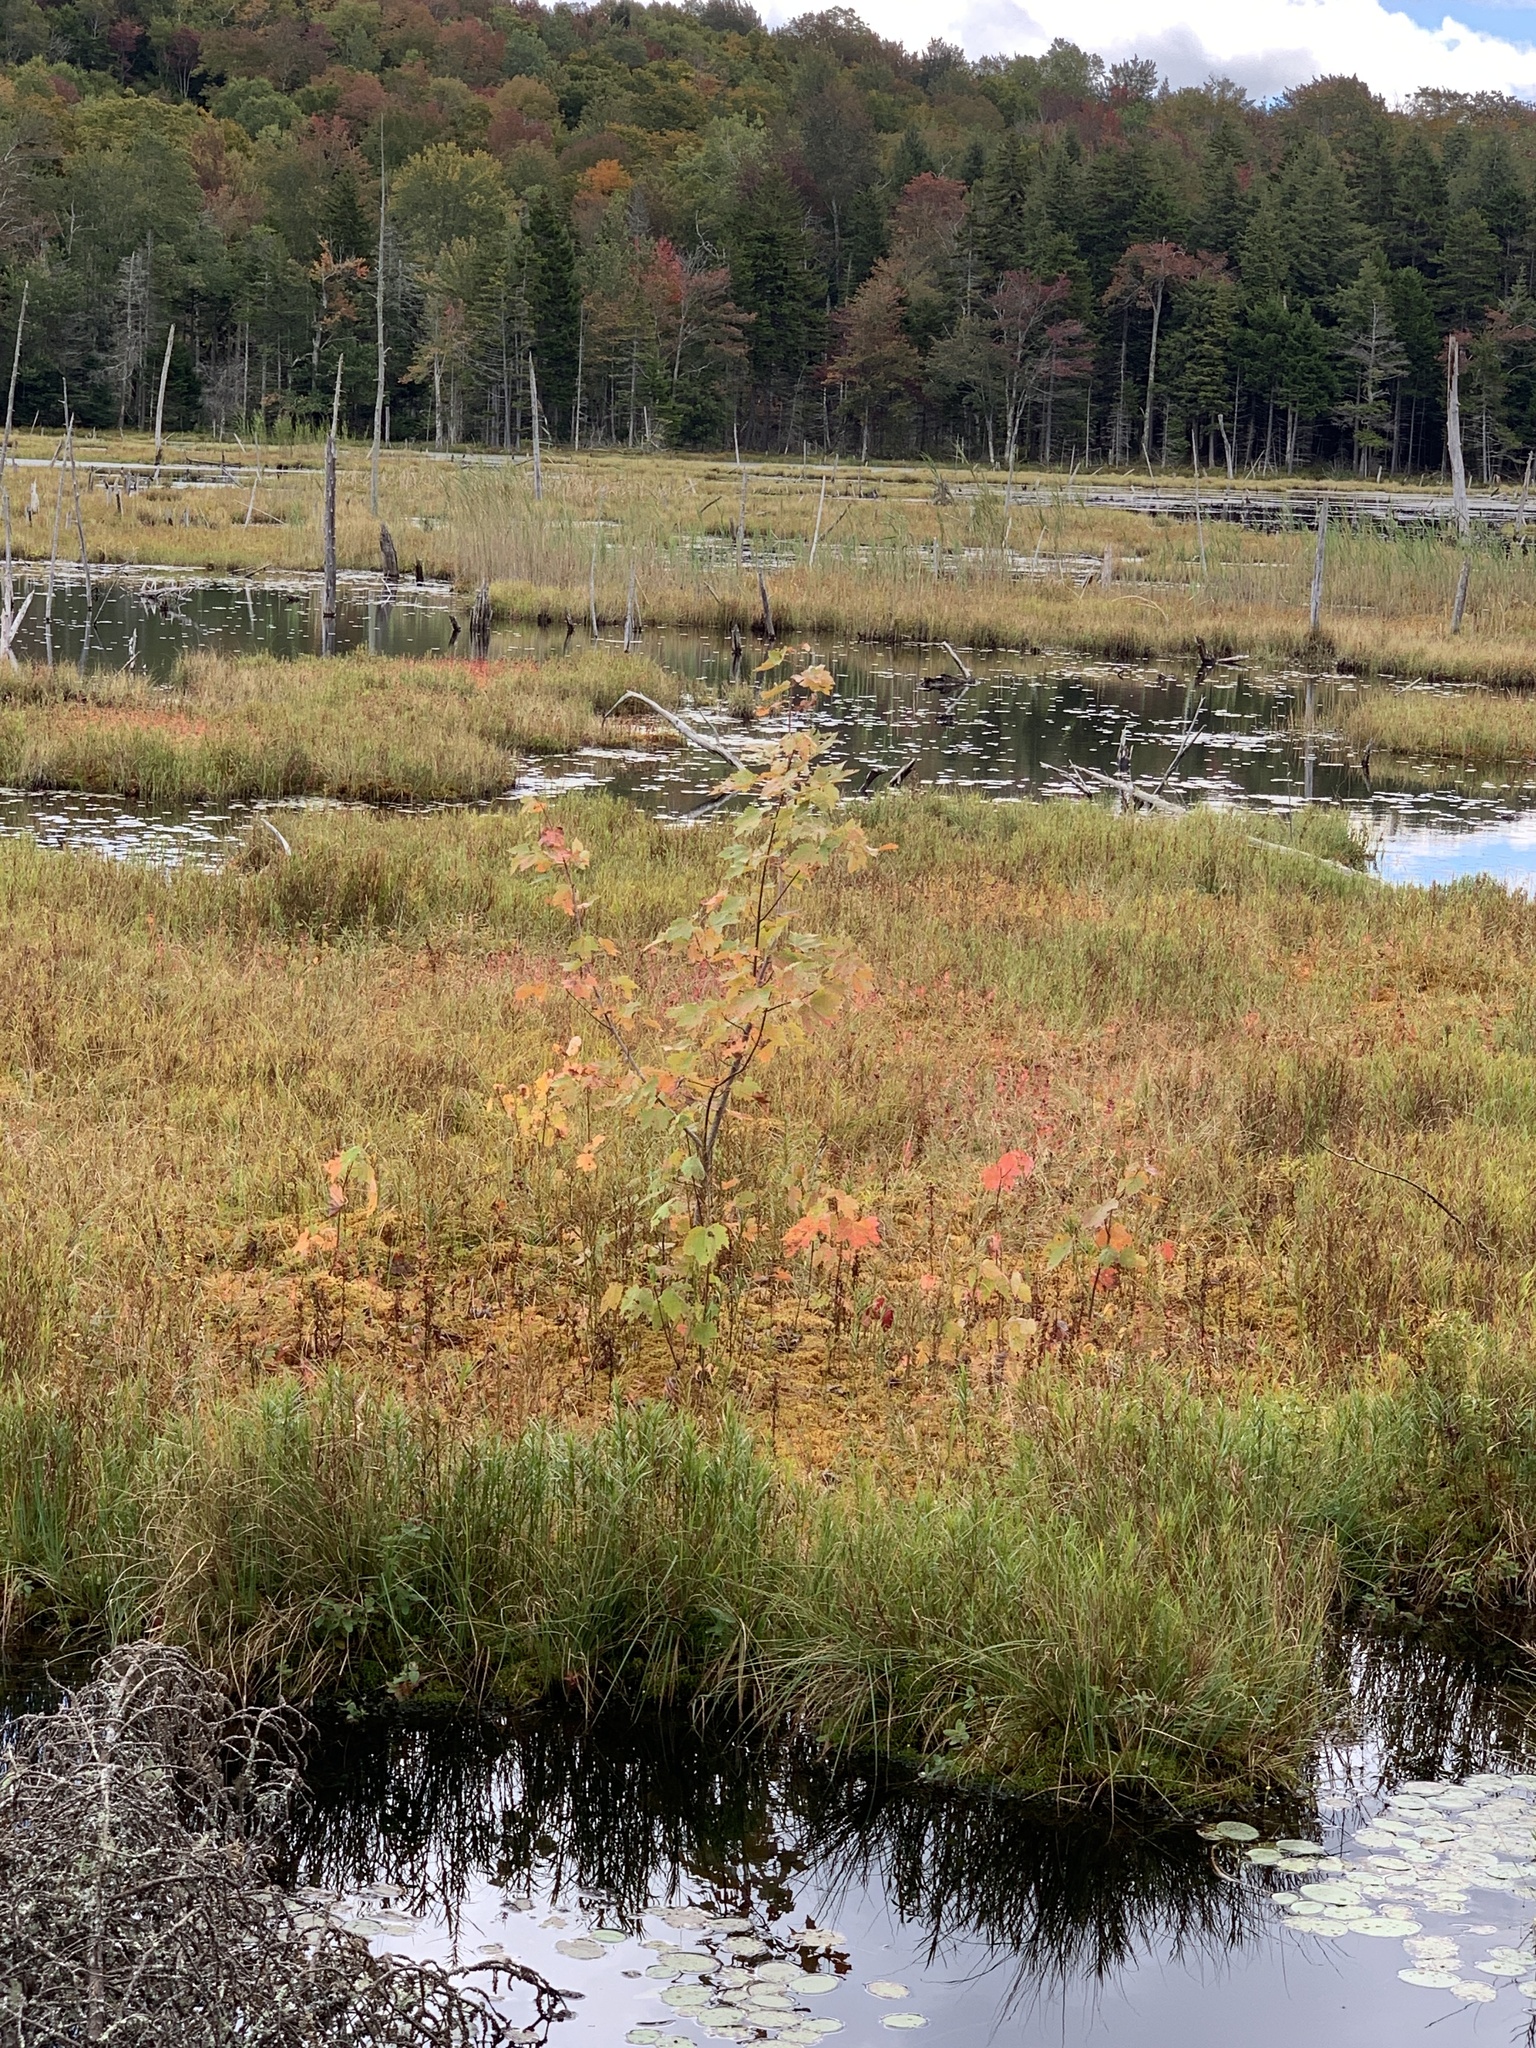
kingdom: Plantae
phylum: Tracheophyta
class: Magnoliopsida
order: Sapindales
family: Sapindaceae
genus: Acer
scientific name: Acer rubrum
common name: Red maple
